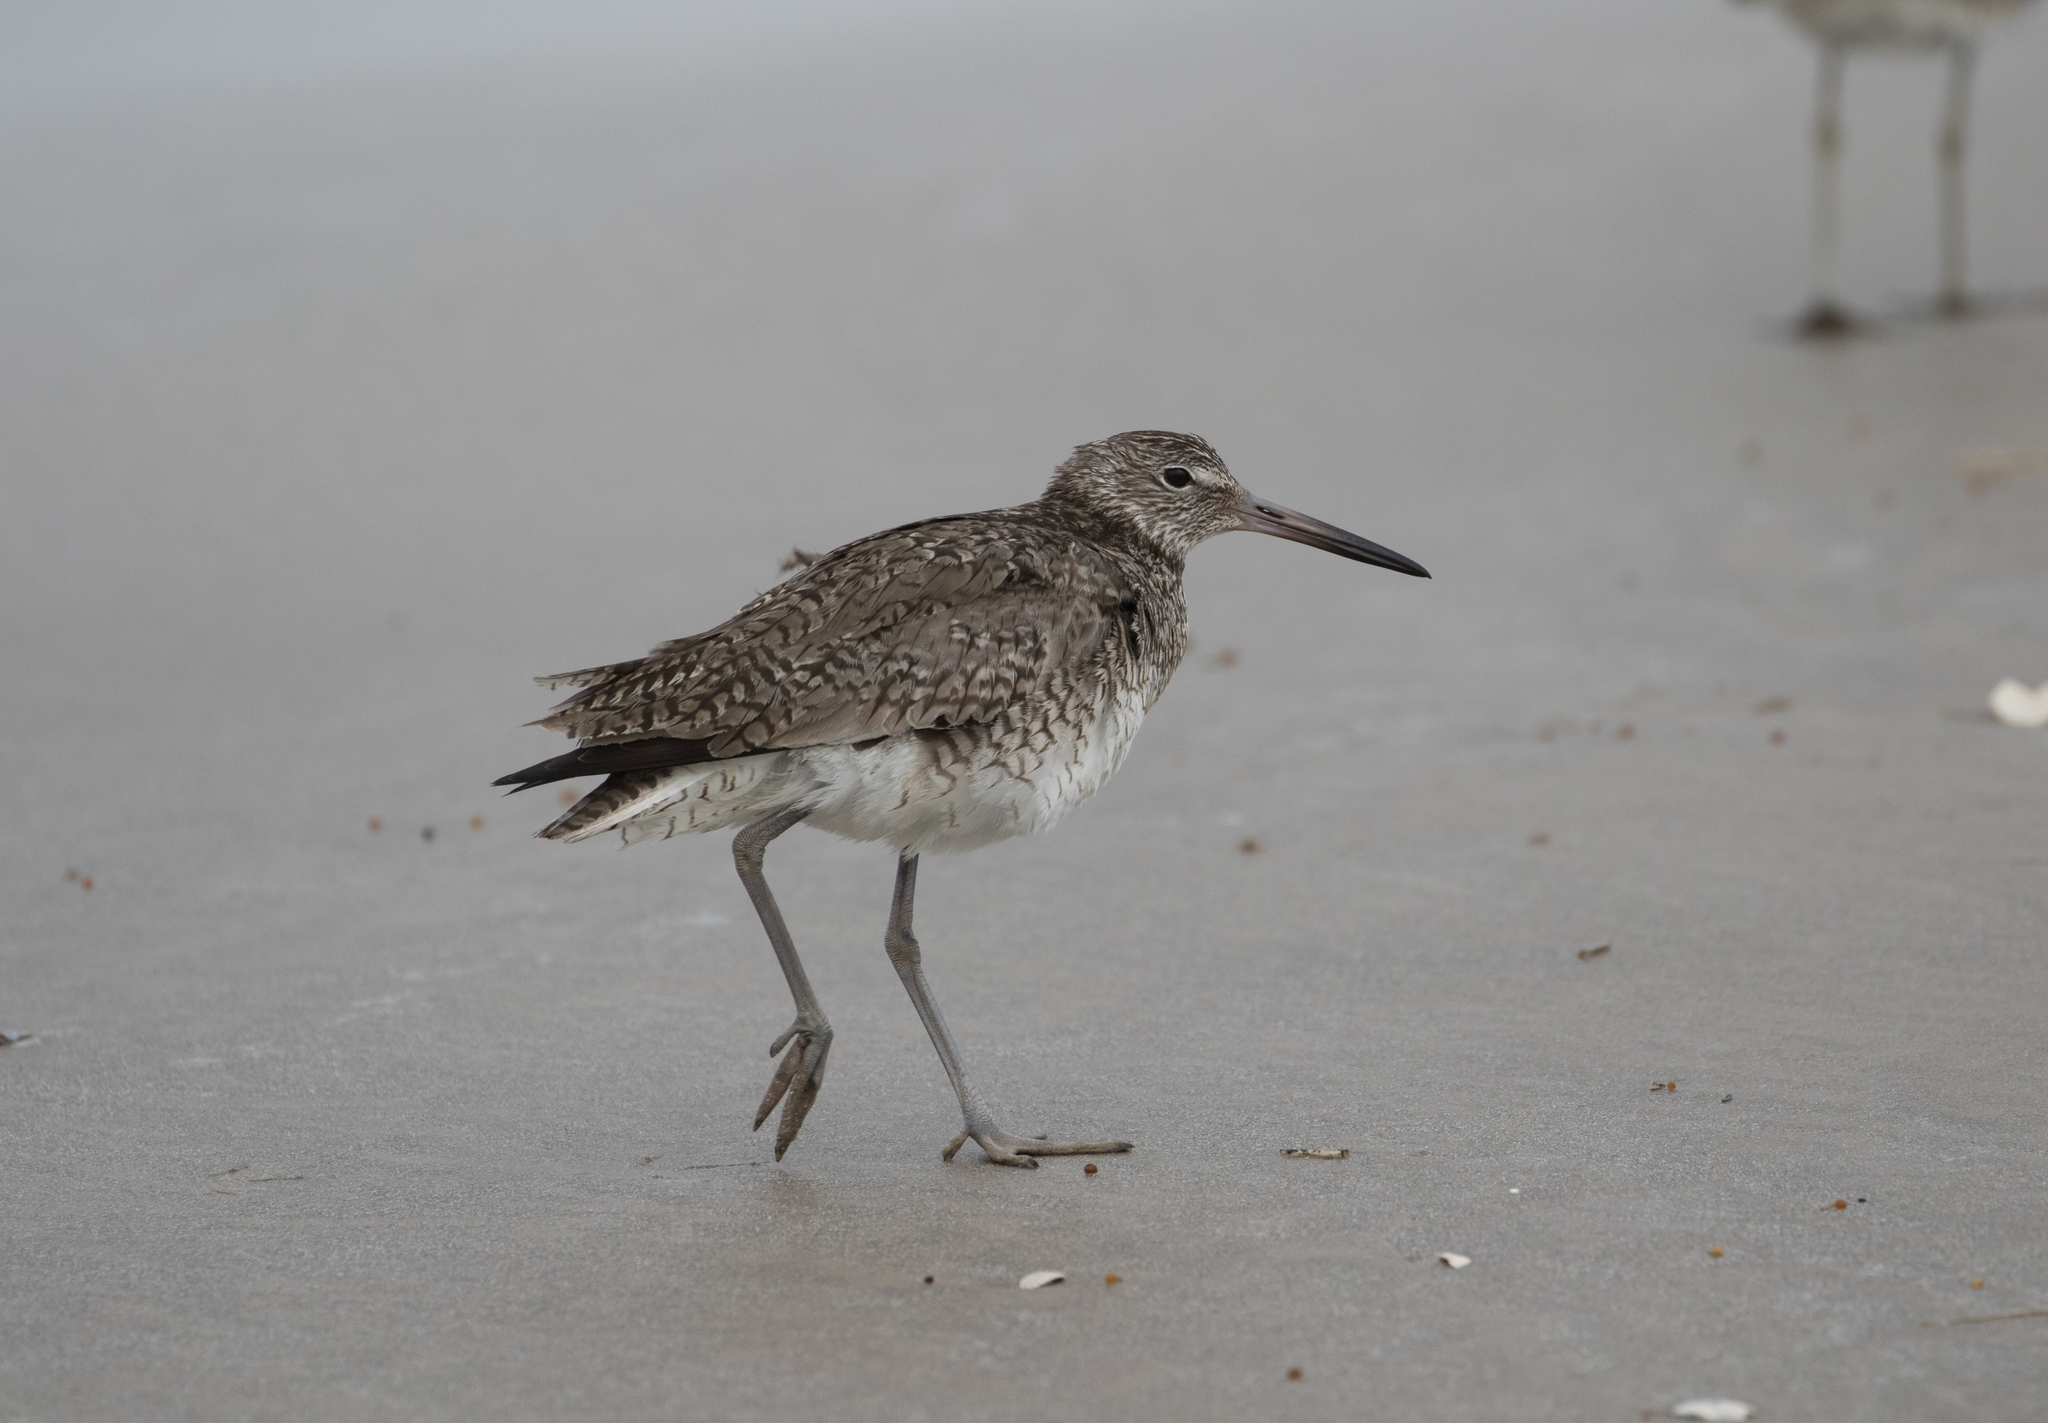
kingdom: Animalia
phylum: Chordata
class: Aves
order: Charadriiformes
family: Scolopacidae
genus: Tringa
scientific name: Tringa semipalmata
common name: Willet
